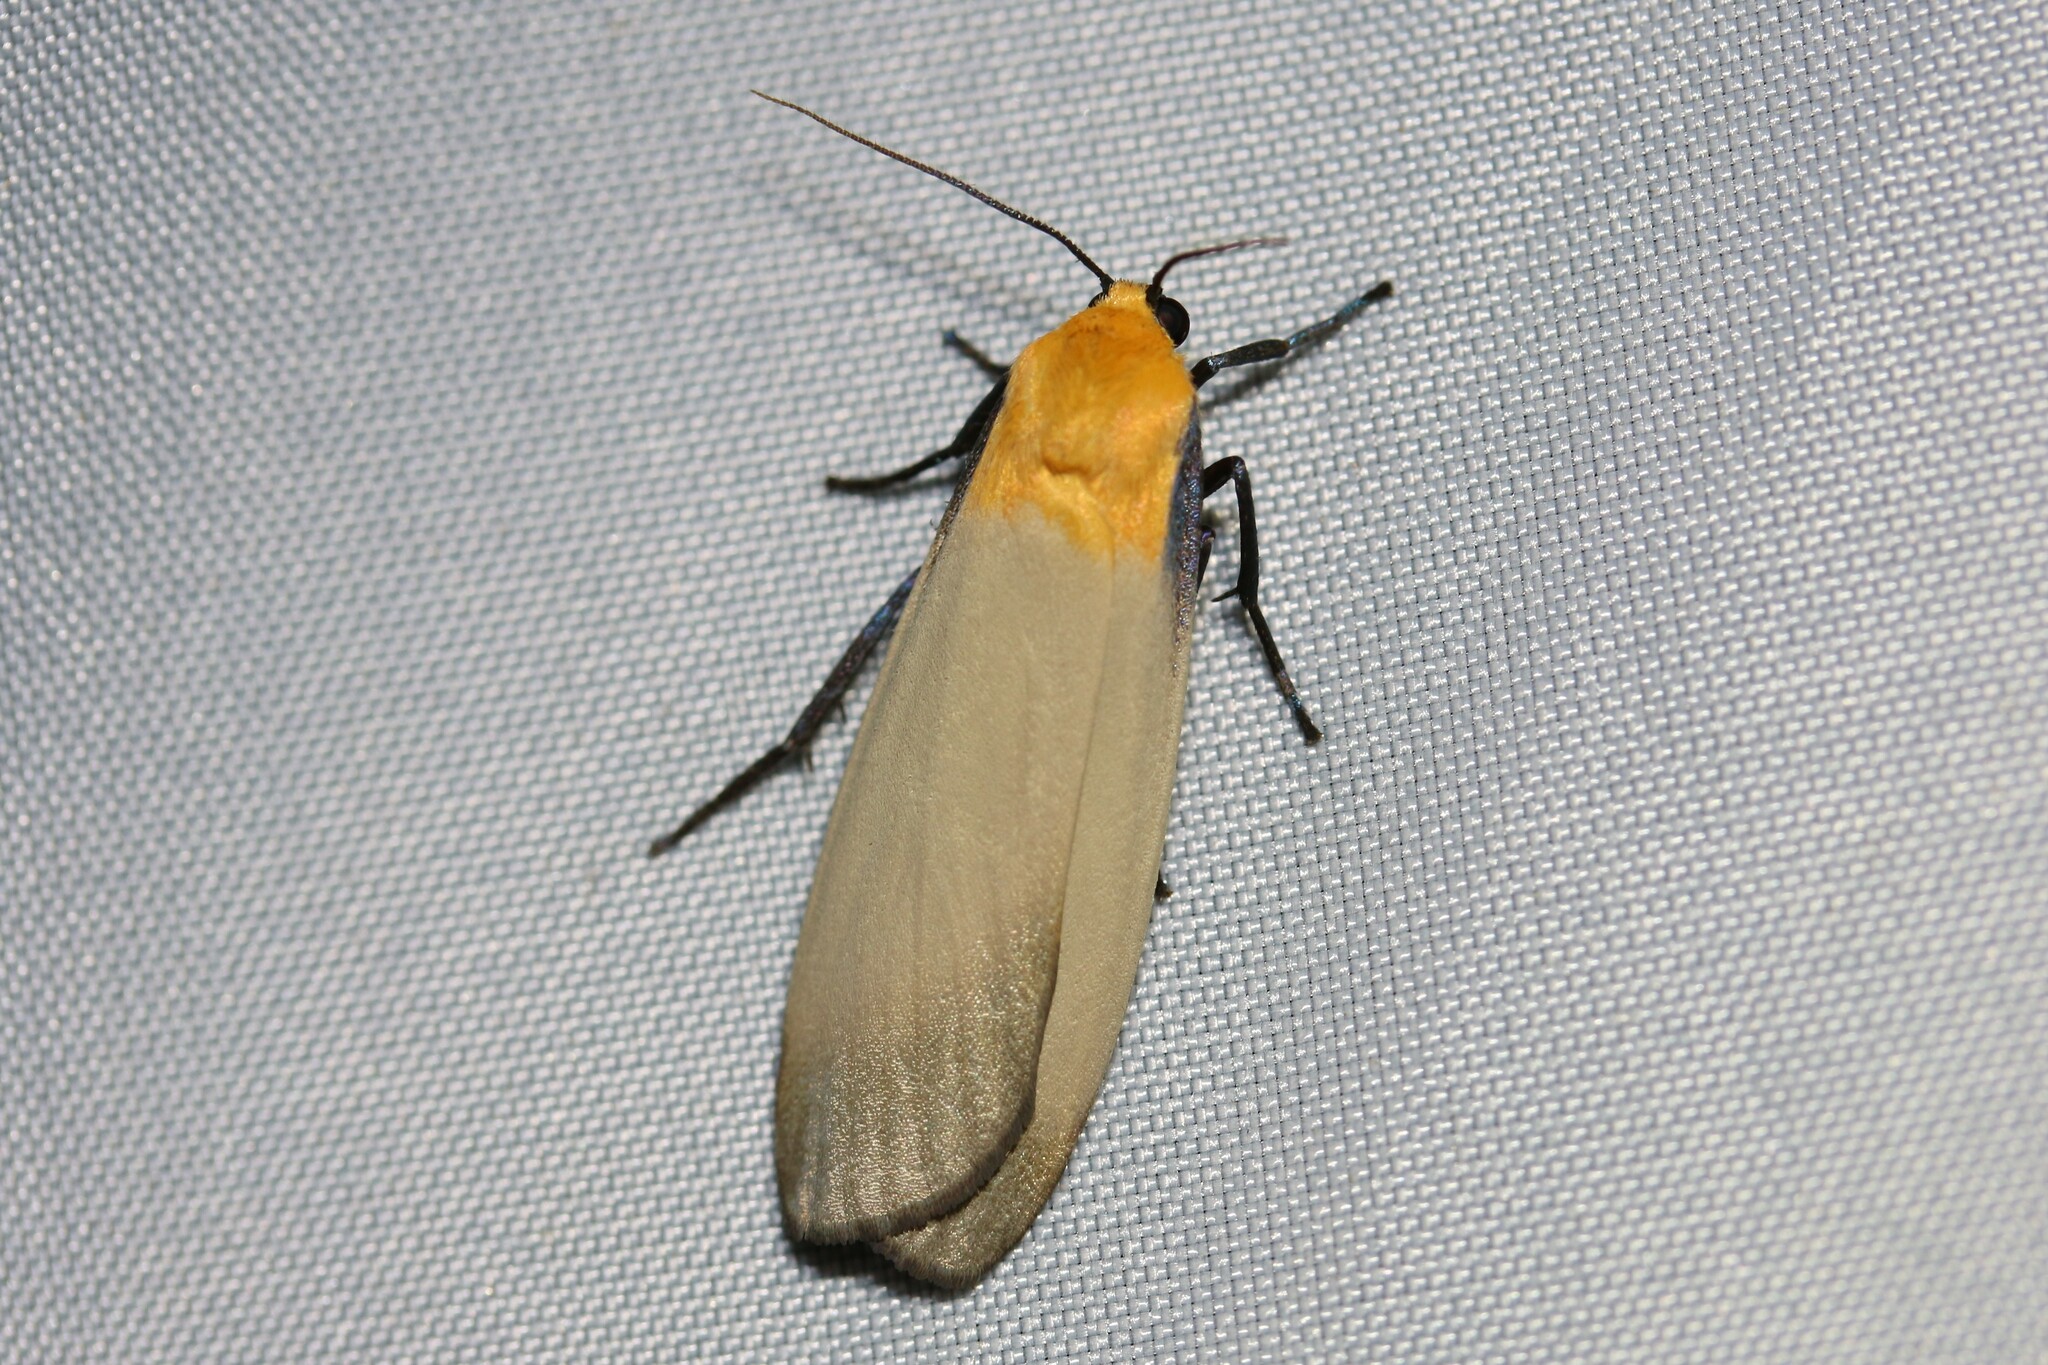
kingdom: Animalia
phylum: Arthropoda
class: Insecta
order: Lepidoptera
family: Erebidae
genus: Lithosia
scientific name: Lithosia quadra
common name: Four-spotted footman
